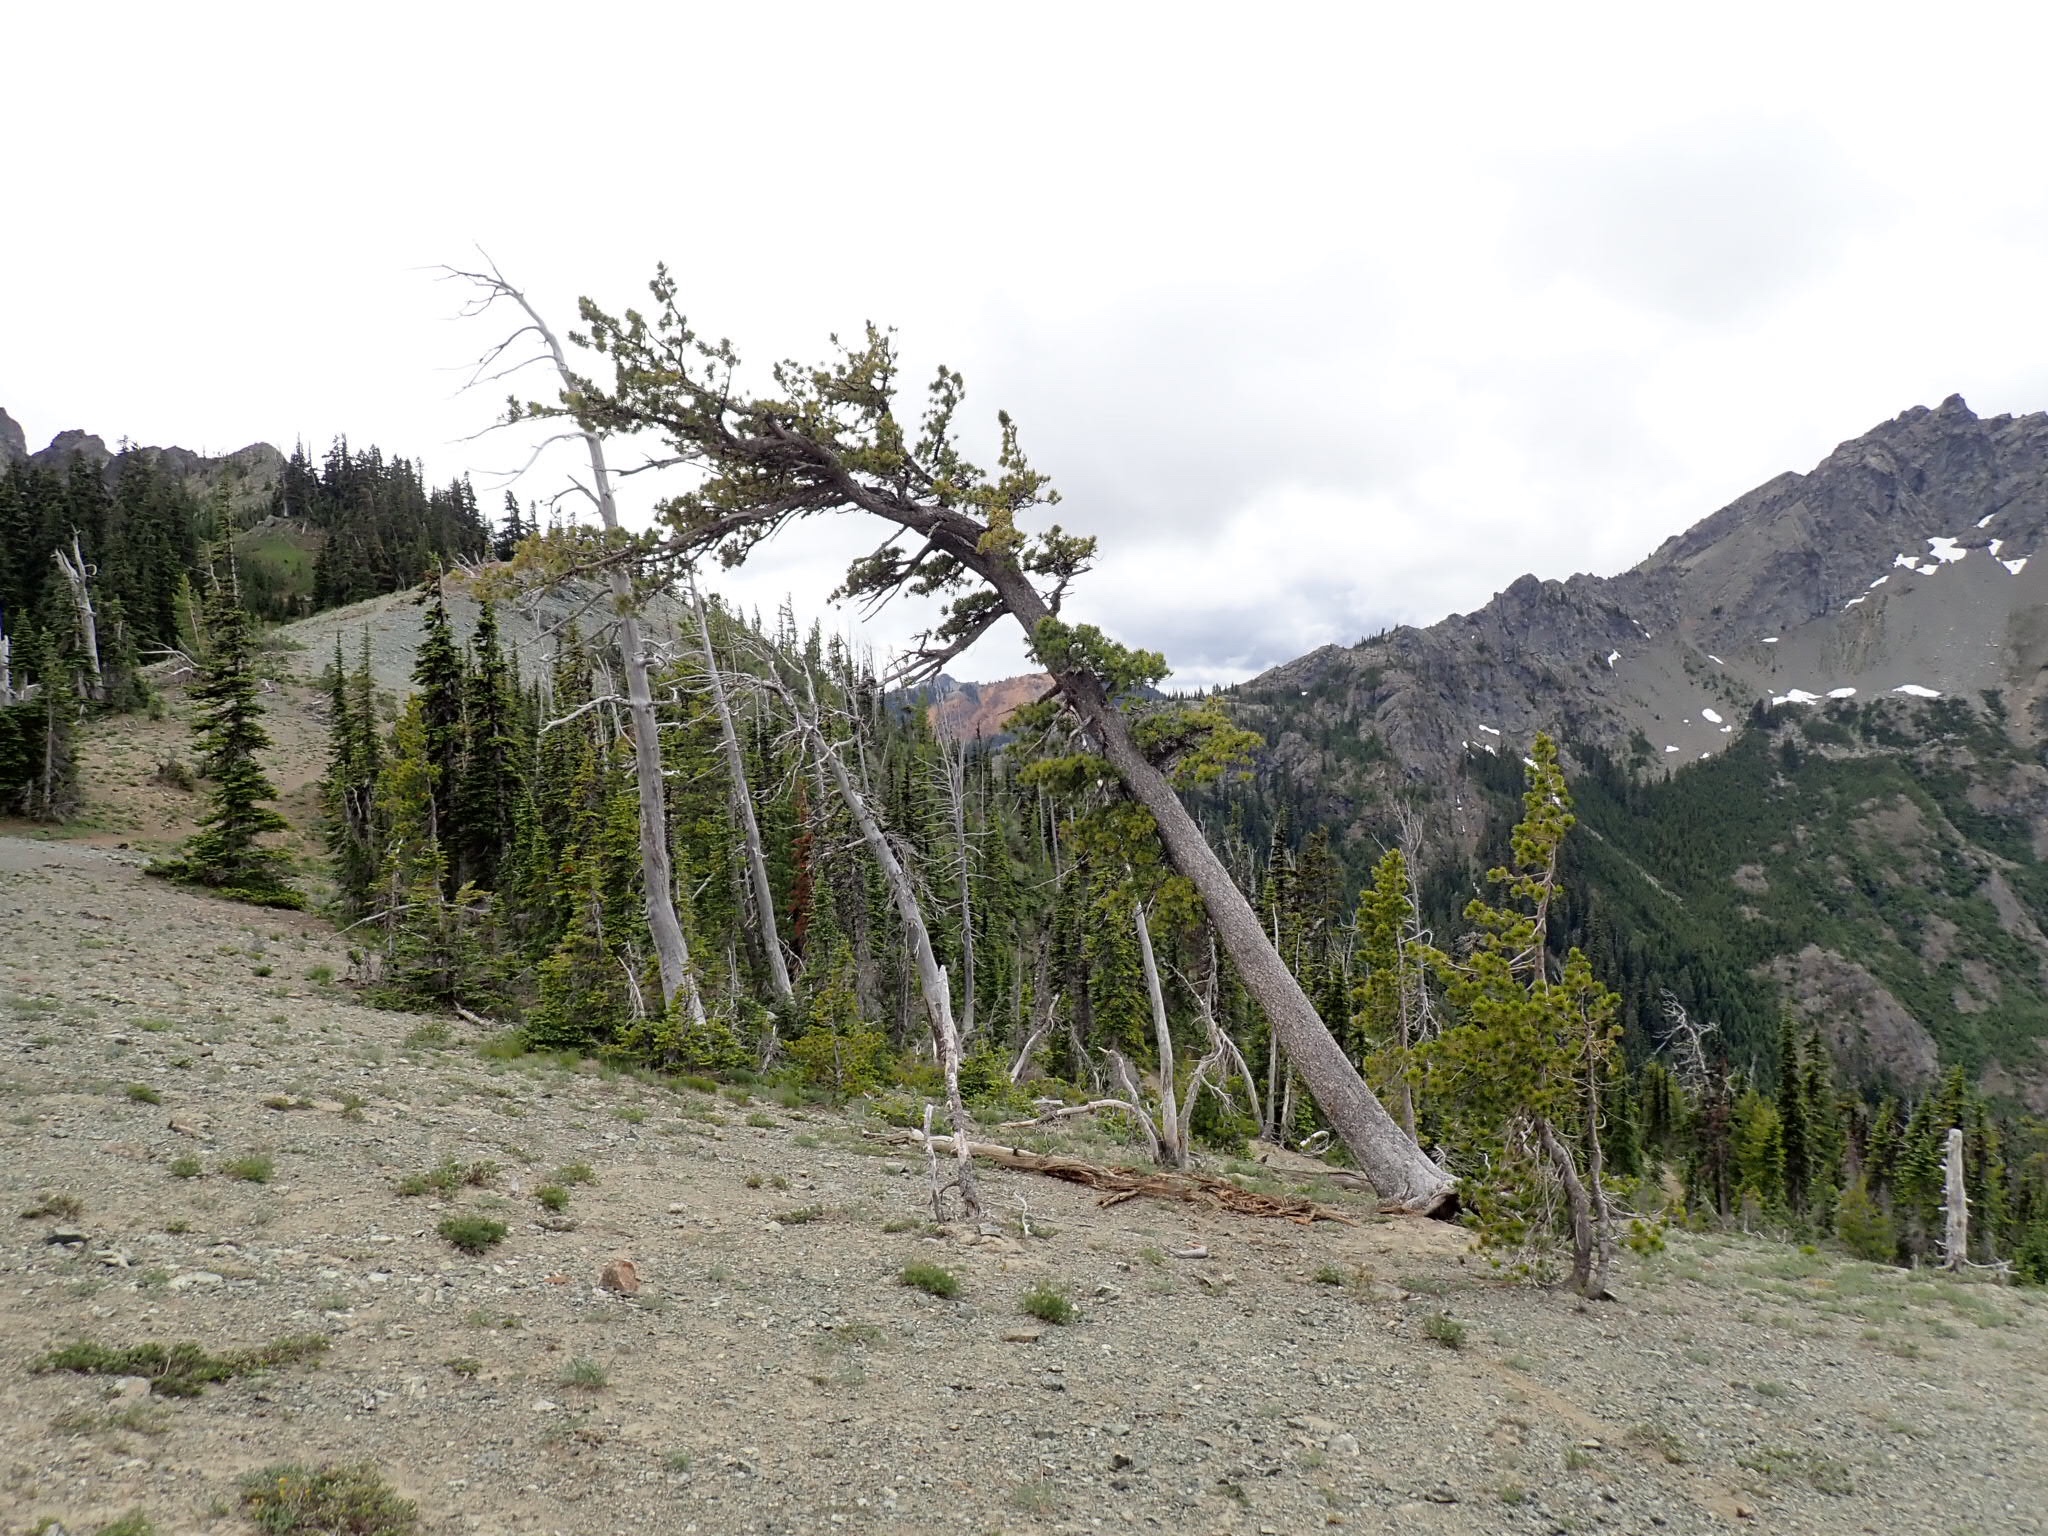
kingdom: Plantae
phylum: Tracheophyta
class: Pinopsida
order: Pinales
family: Pinaceae
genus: Pinus
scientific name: Pinus albicaulis
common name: Whitebark pine
